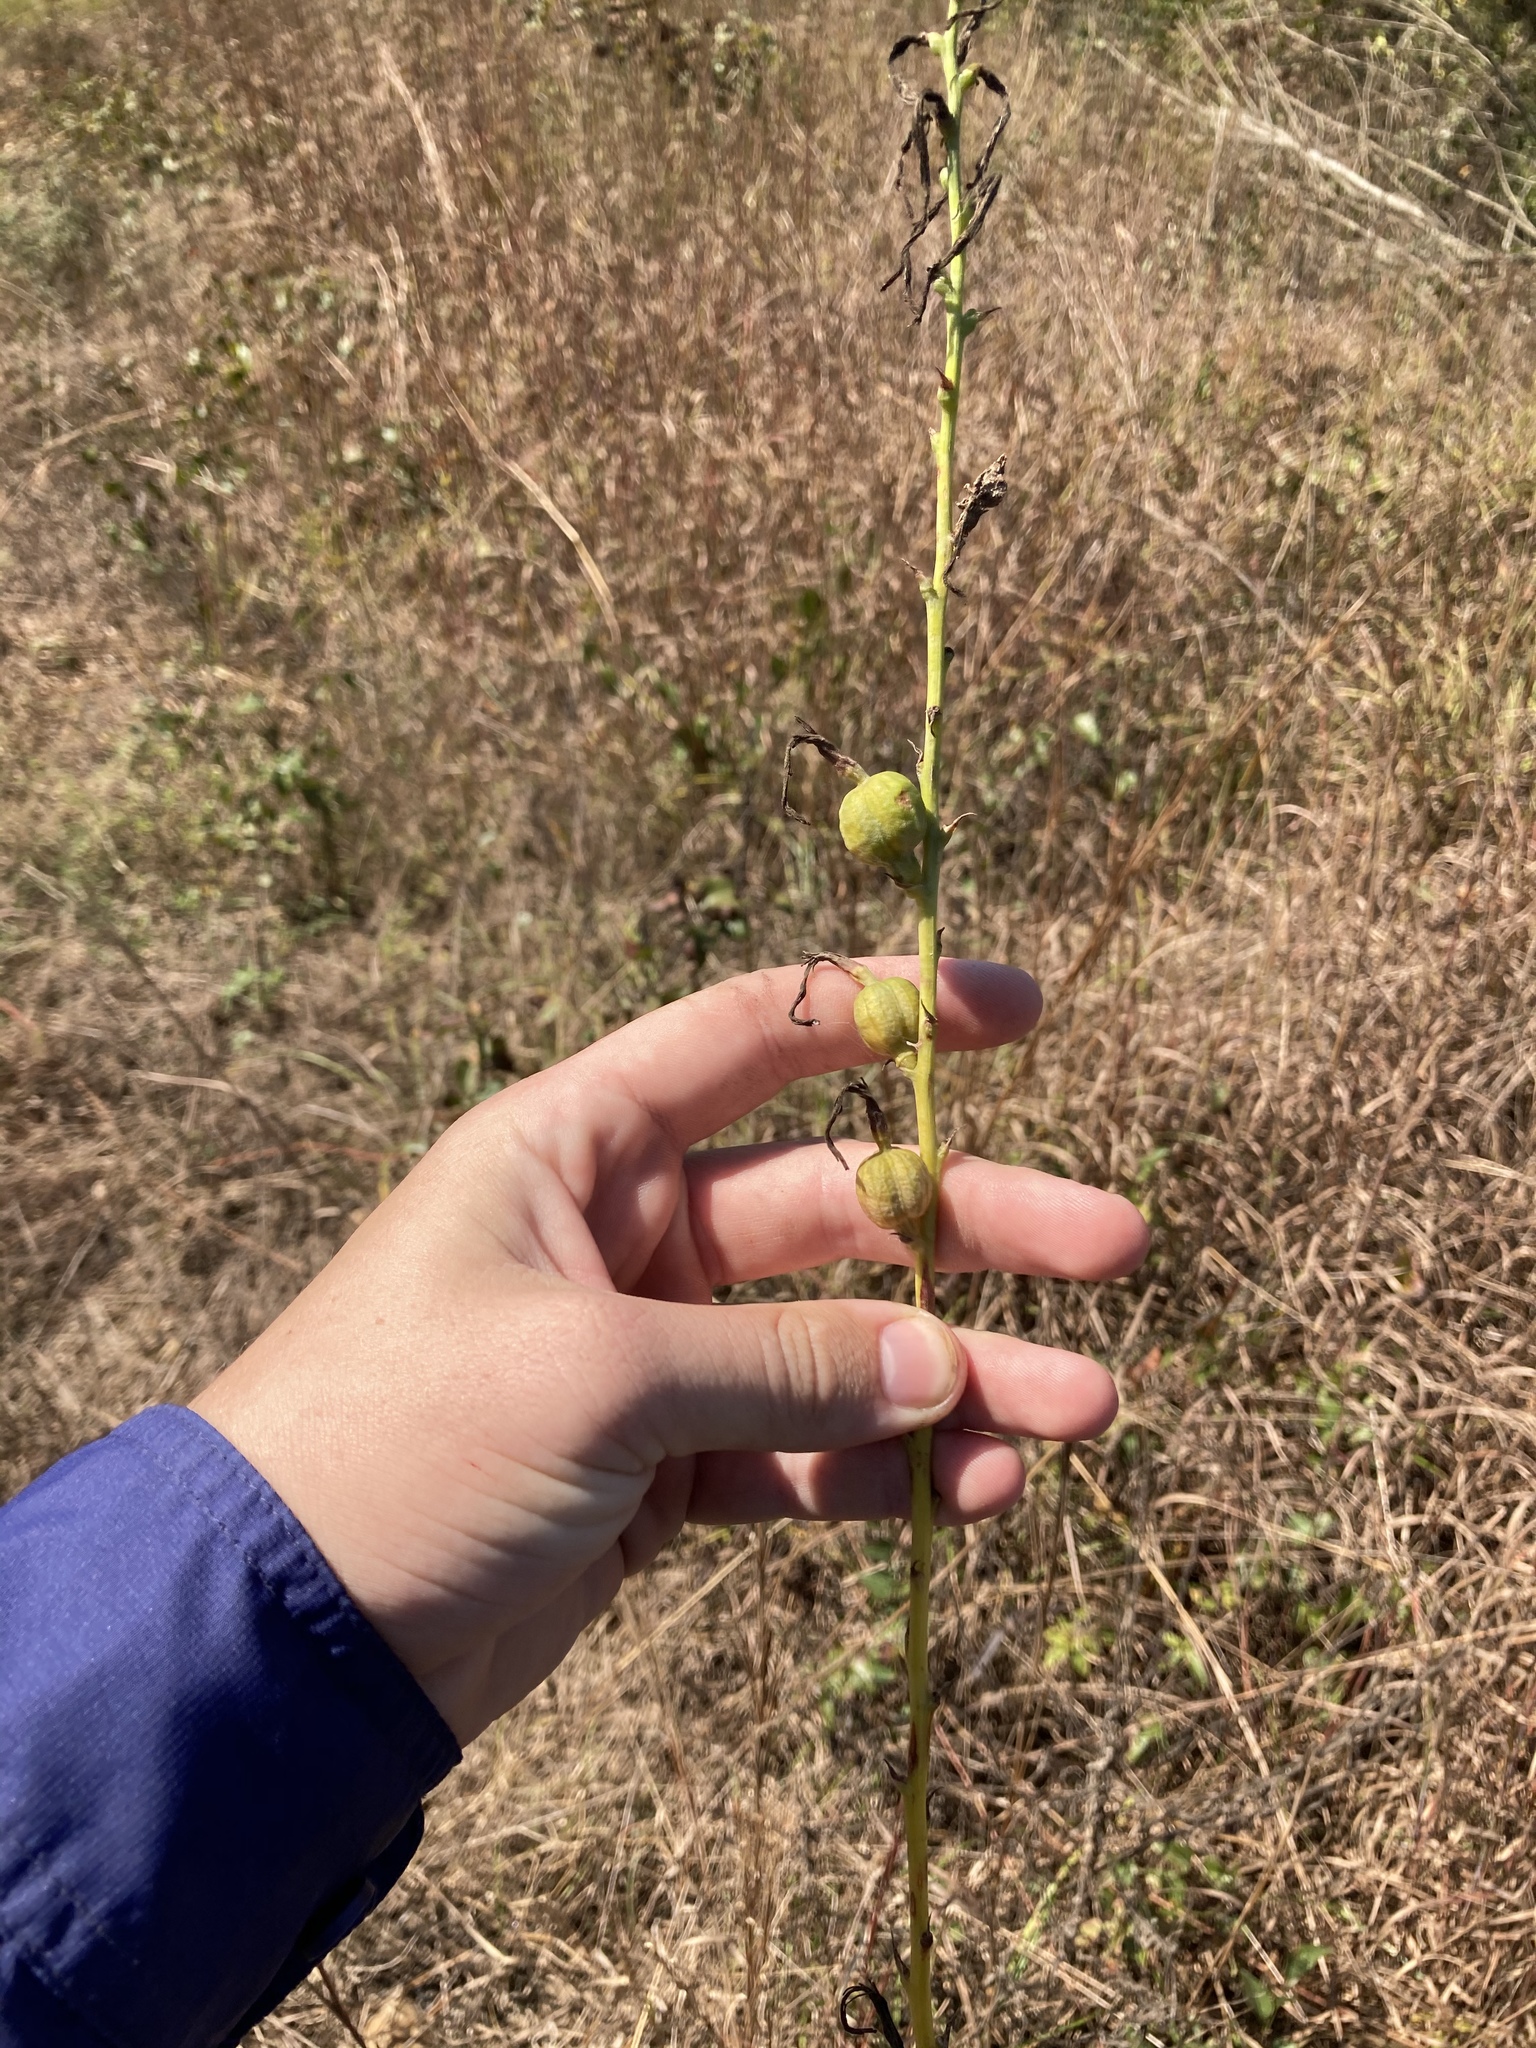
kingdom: Plantae
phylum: Tracheophyta
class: Liliopsida
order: Asparagales
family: Asparagaceae
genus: Agave
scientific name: Agave virginica
